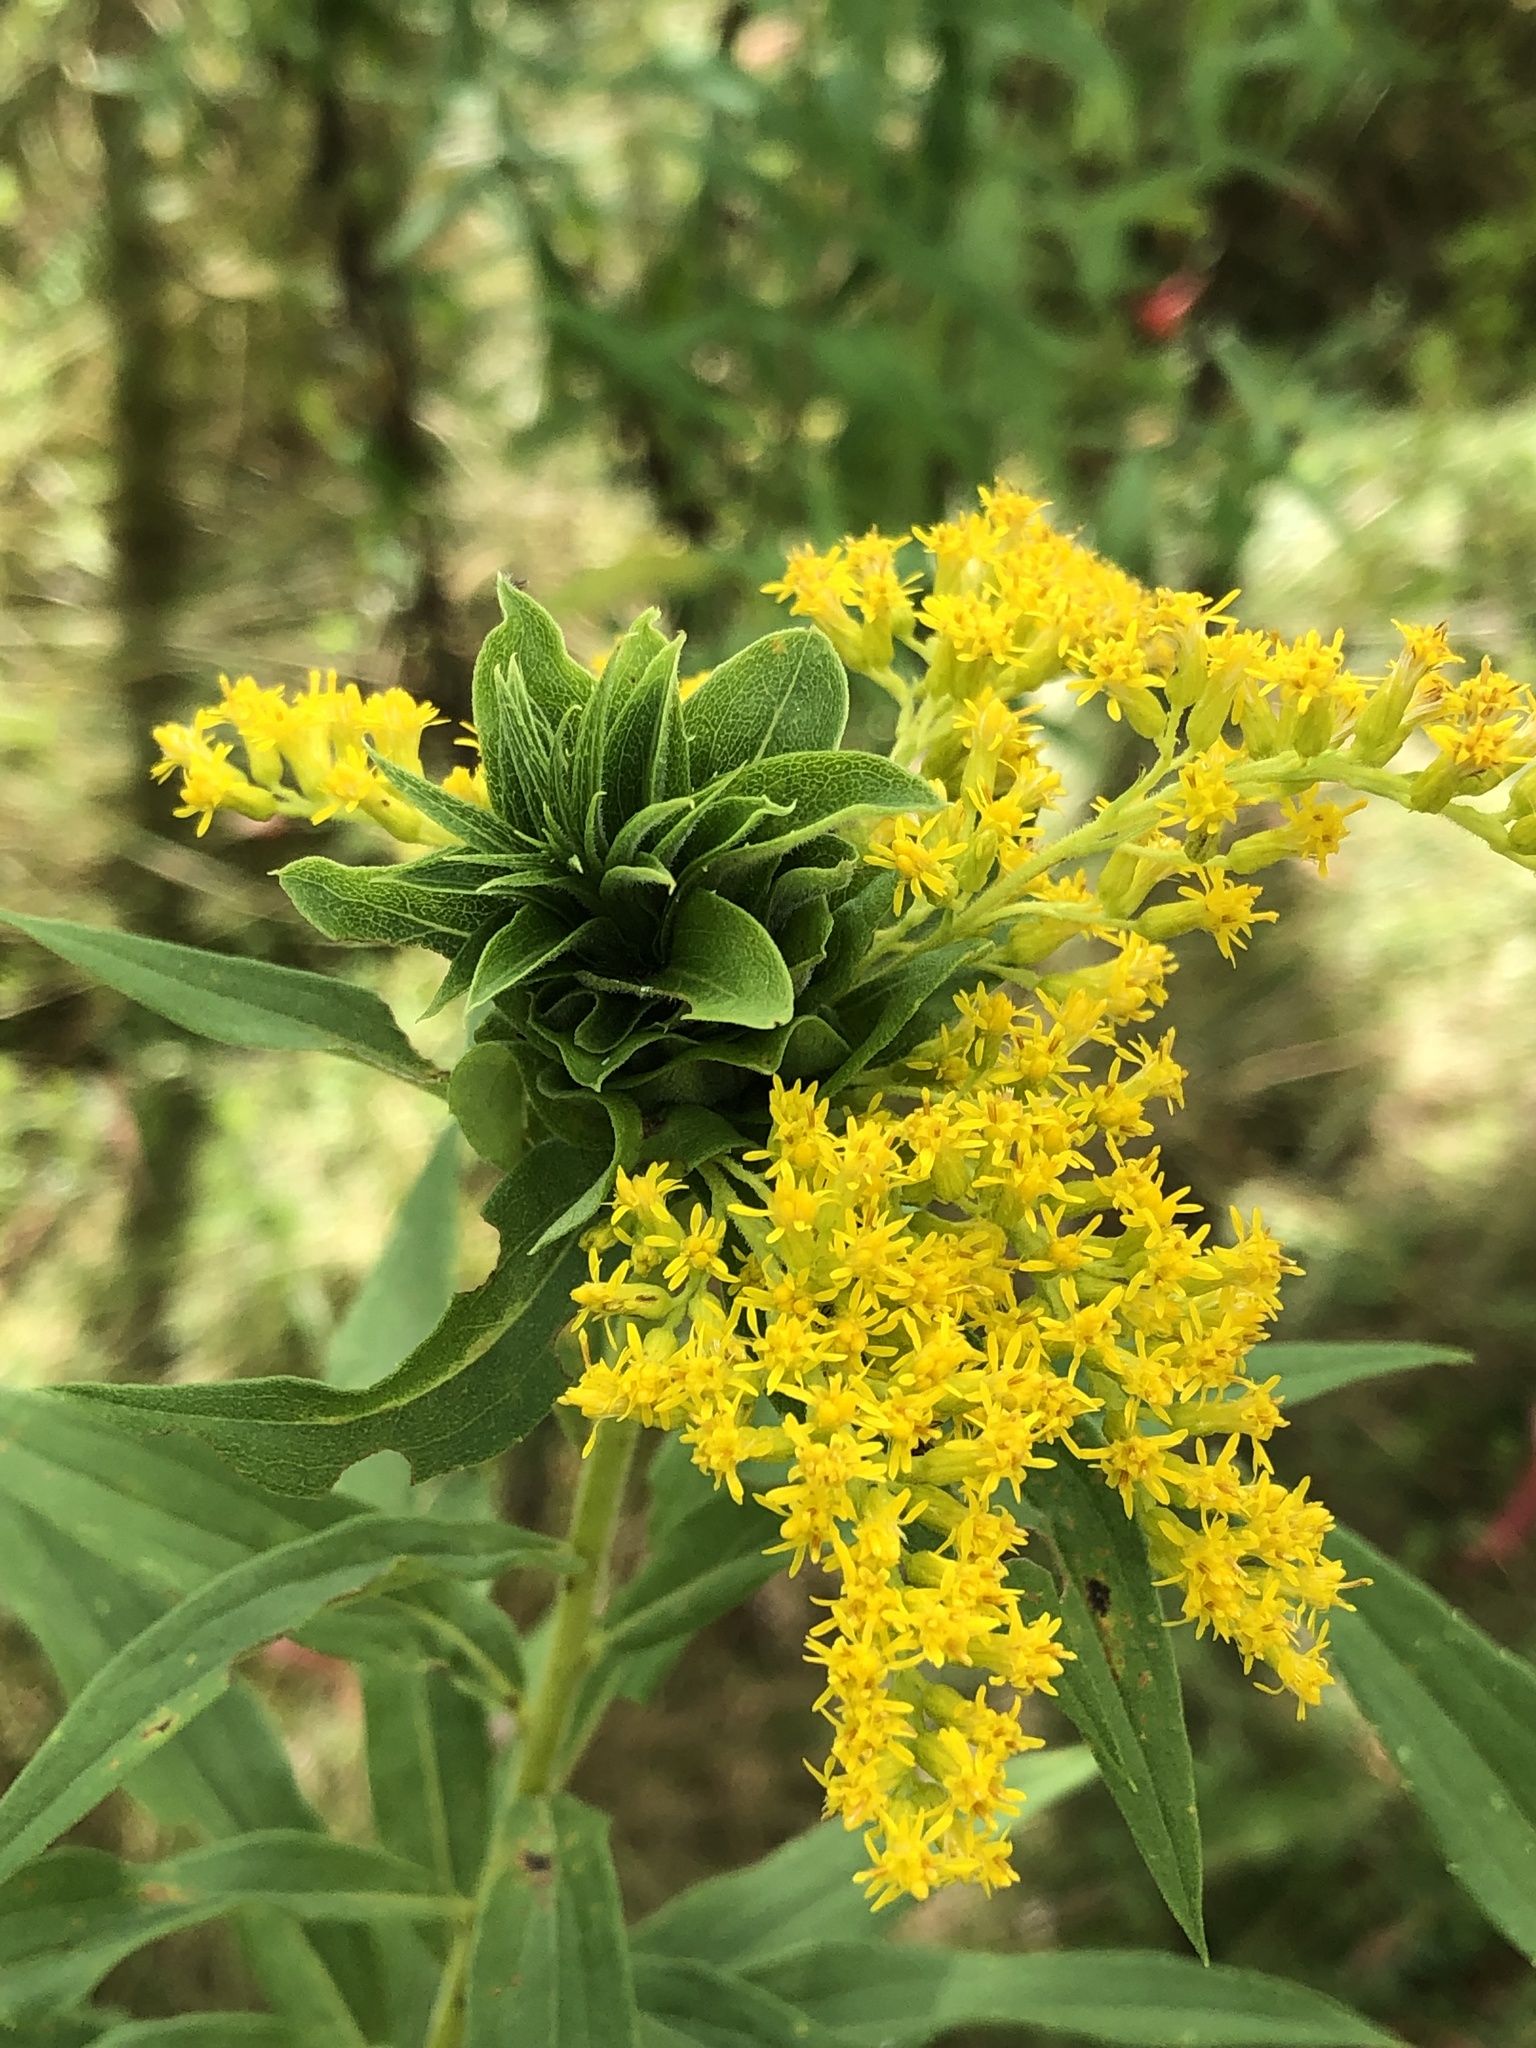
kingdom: Animalia
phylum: Arthropoda
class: Insecta
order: Diptera
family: Cecidomyiidae
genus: Rhopalomyia
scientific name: Rhopalomyia solidaginis
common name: Goldenrod bunch gall midge
